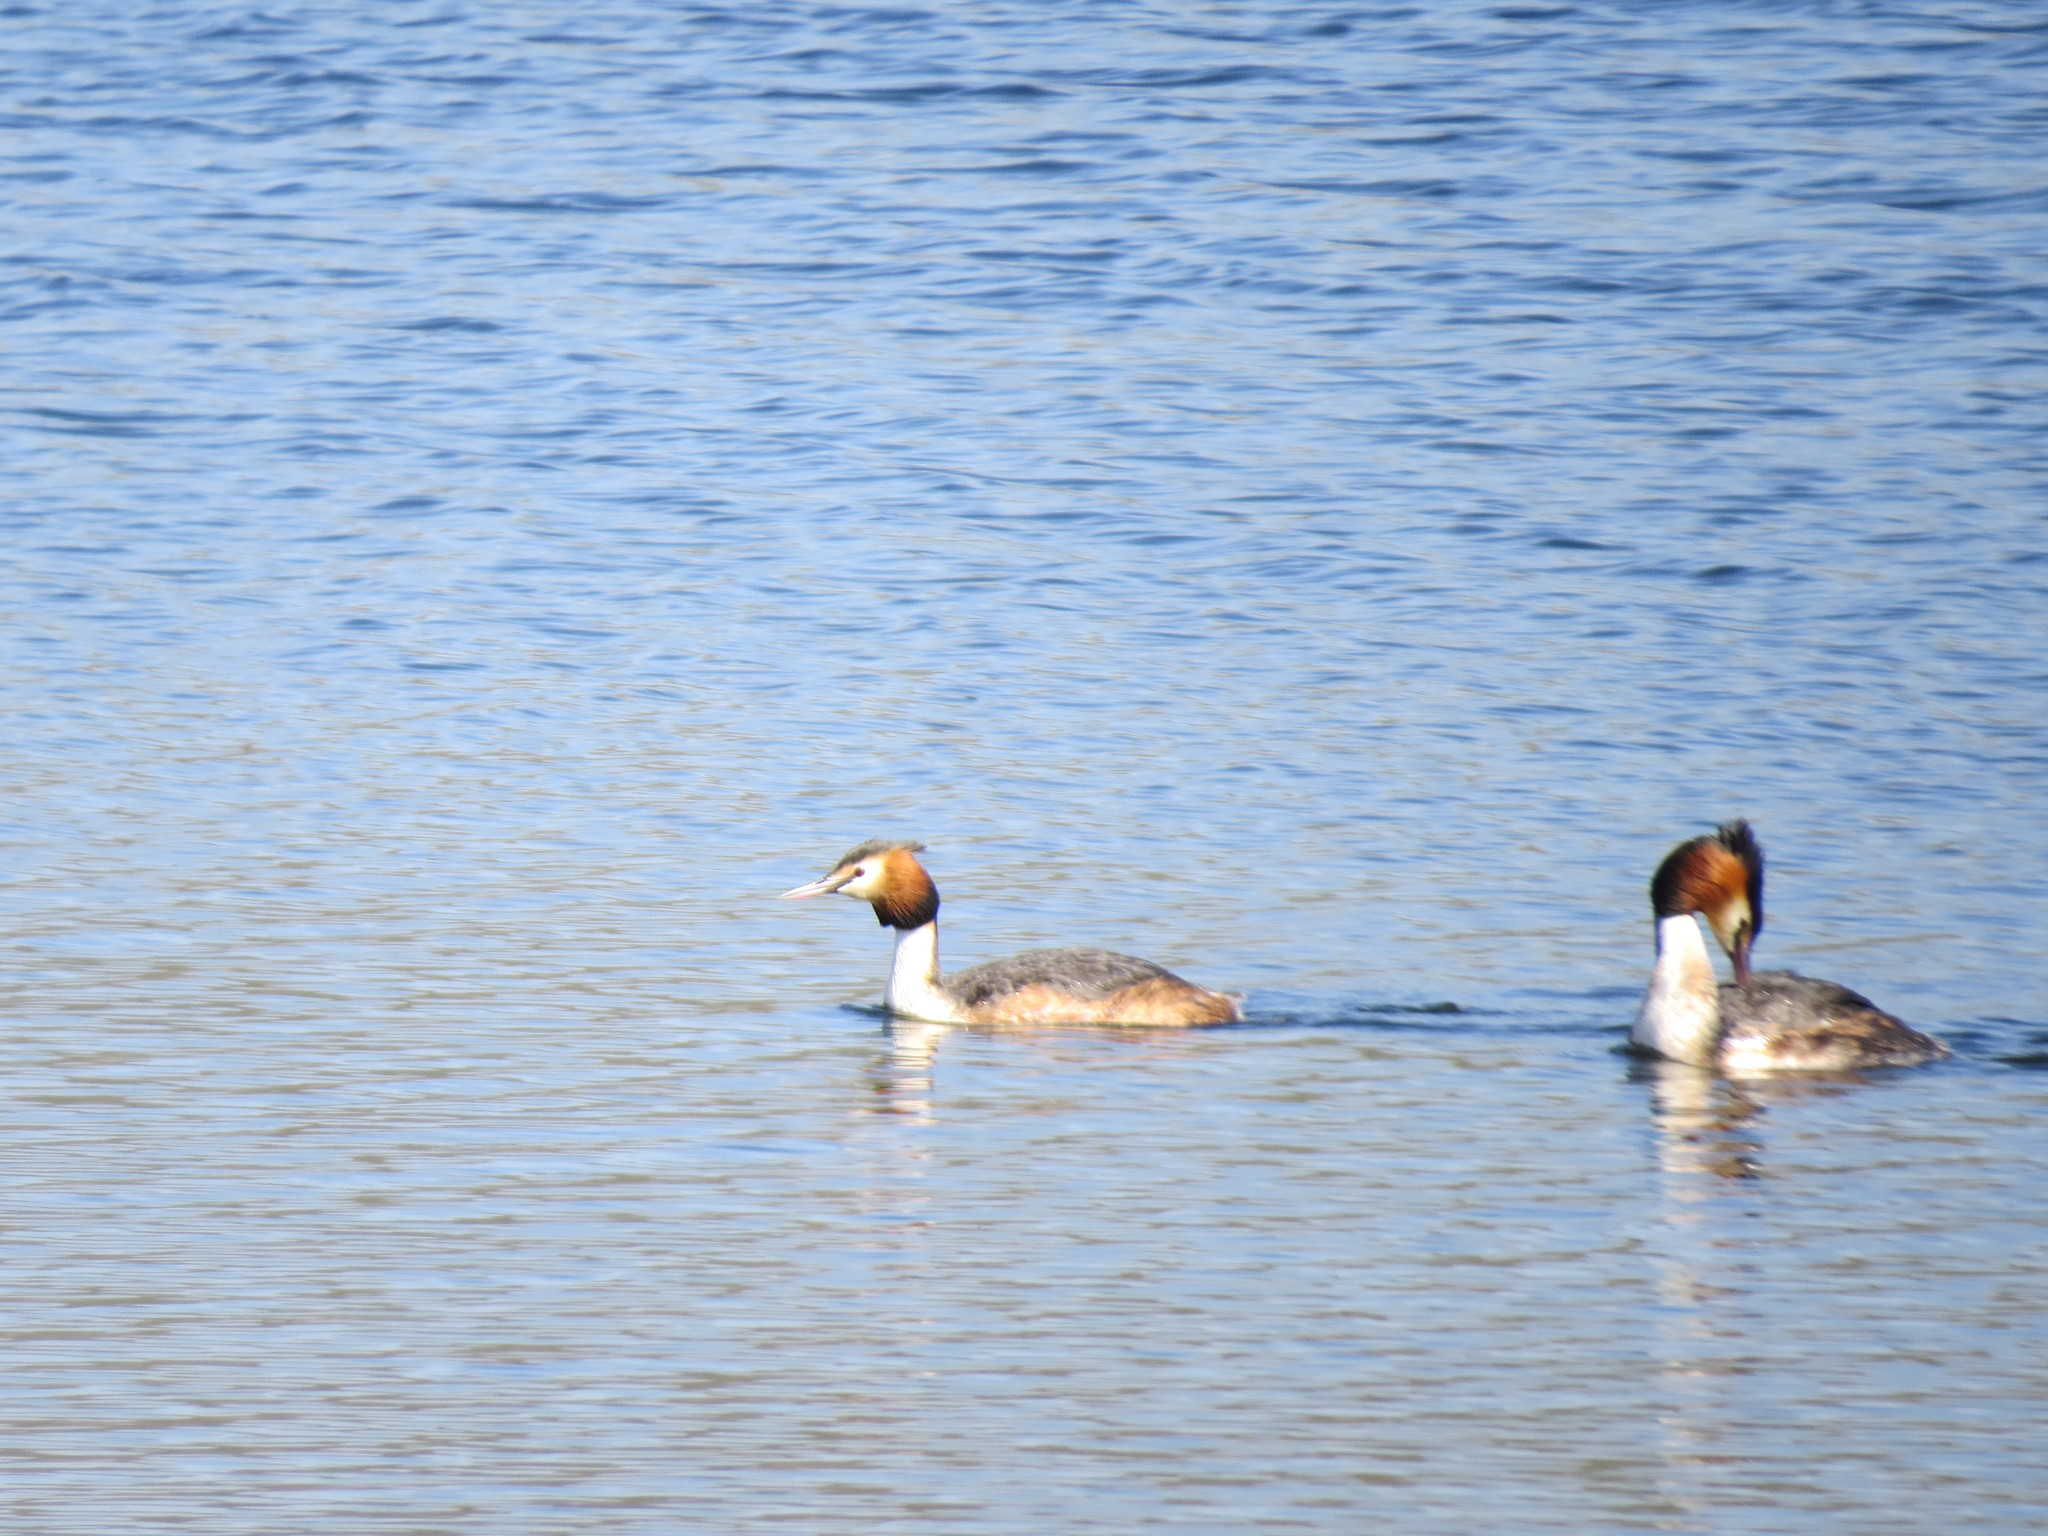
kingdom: Animalia
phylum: Chordata
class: Aves
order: Podicipediformes
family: Podicipedidae
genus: Podiceps
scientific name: Podiceps cristatus
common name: Great crested grebe
